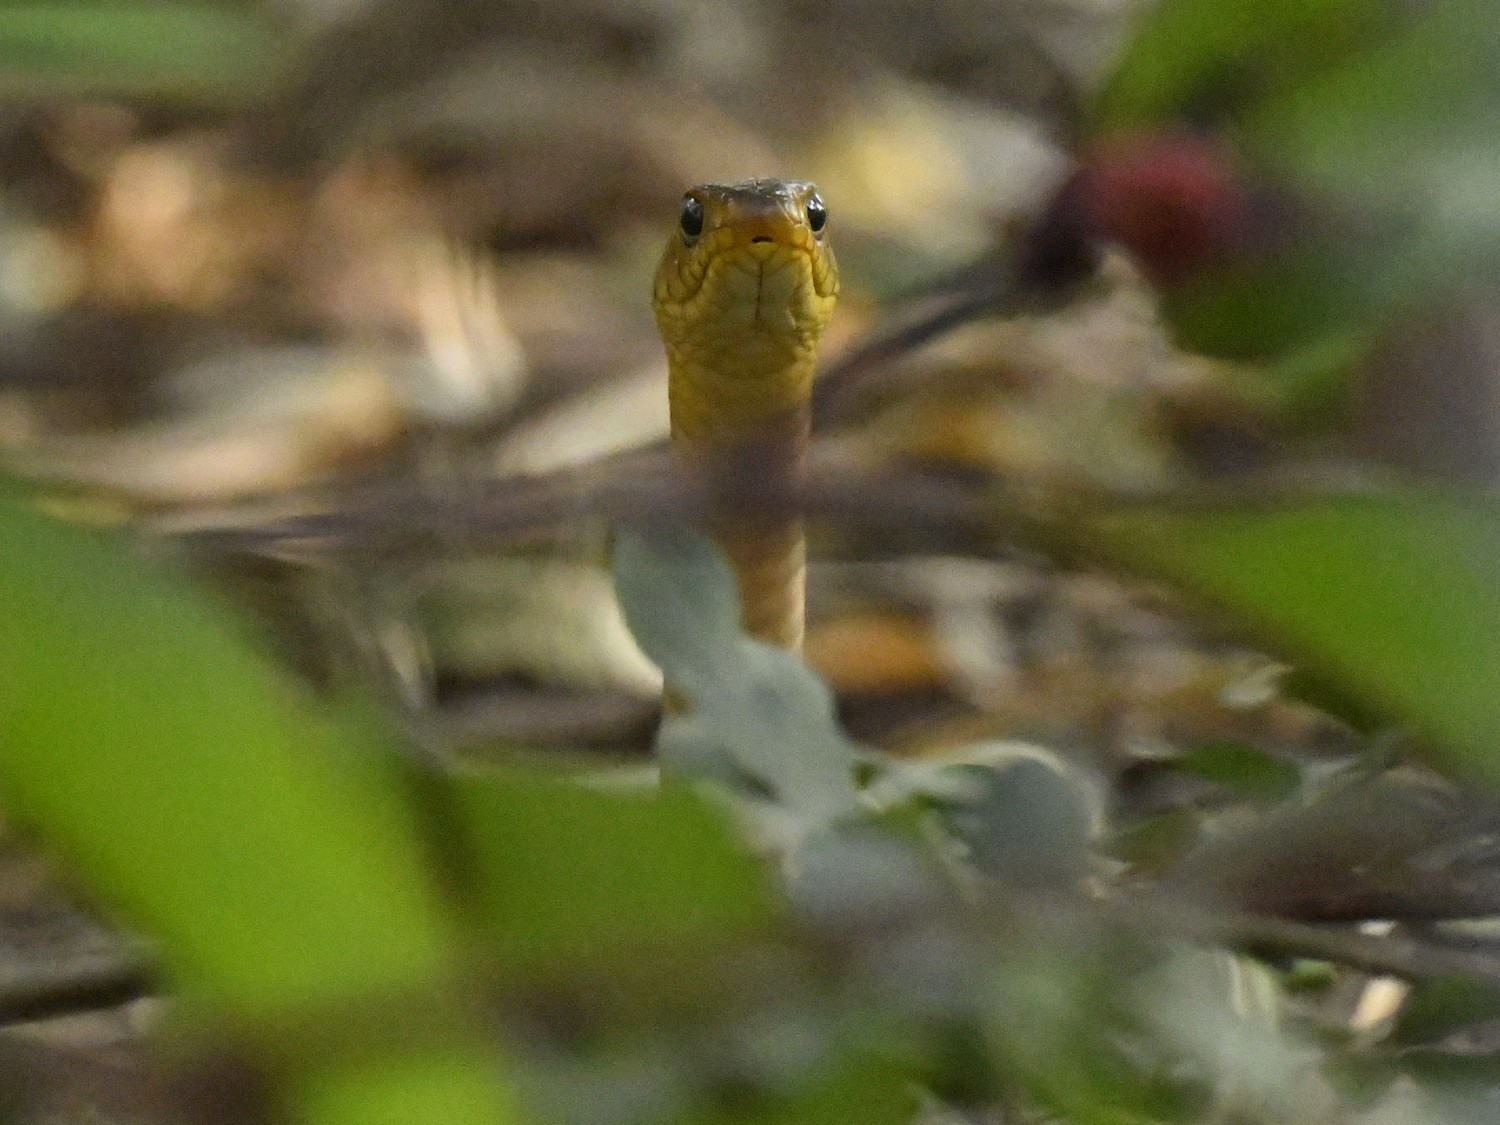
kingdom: Animalia
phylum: Chordata
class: Squamata
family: Colubridae
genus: Ptyas
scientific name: Ptyas mucosa
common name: Oriental ratsnake
